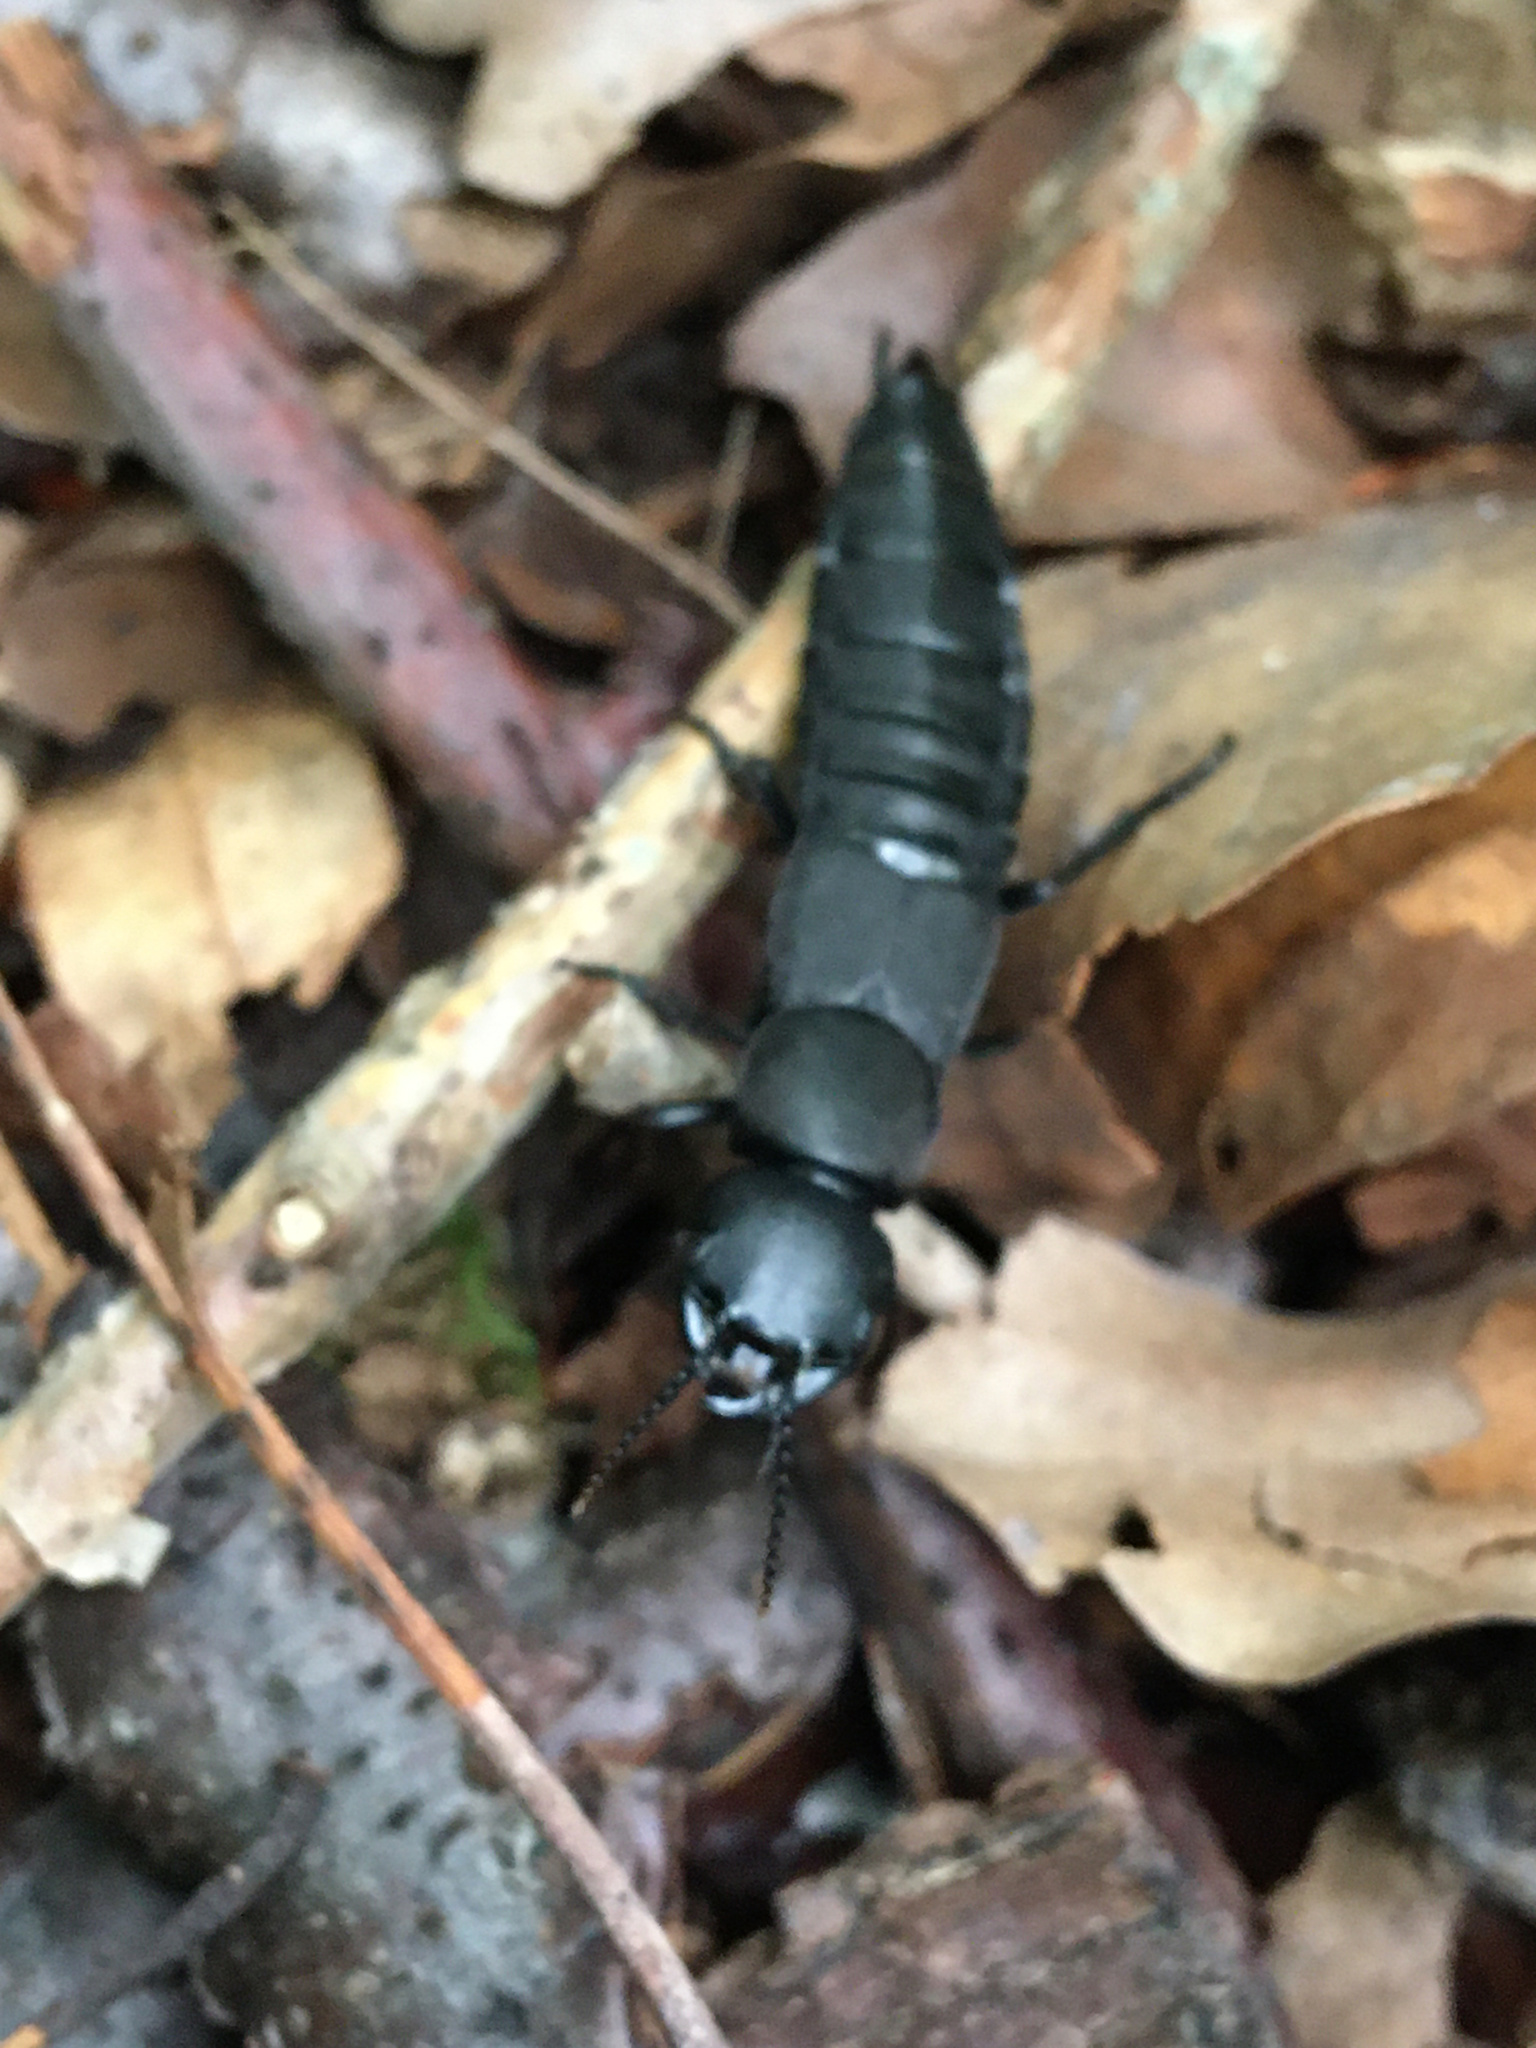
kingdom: Animalia
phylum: Arthropoda
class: Insecta
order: Coleoptera
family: Staphylinidae
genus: Ocypus
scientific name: Ocypus olens
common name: Devil's coach-horse
